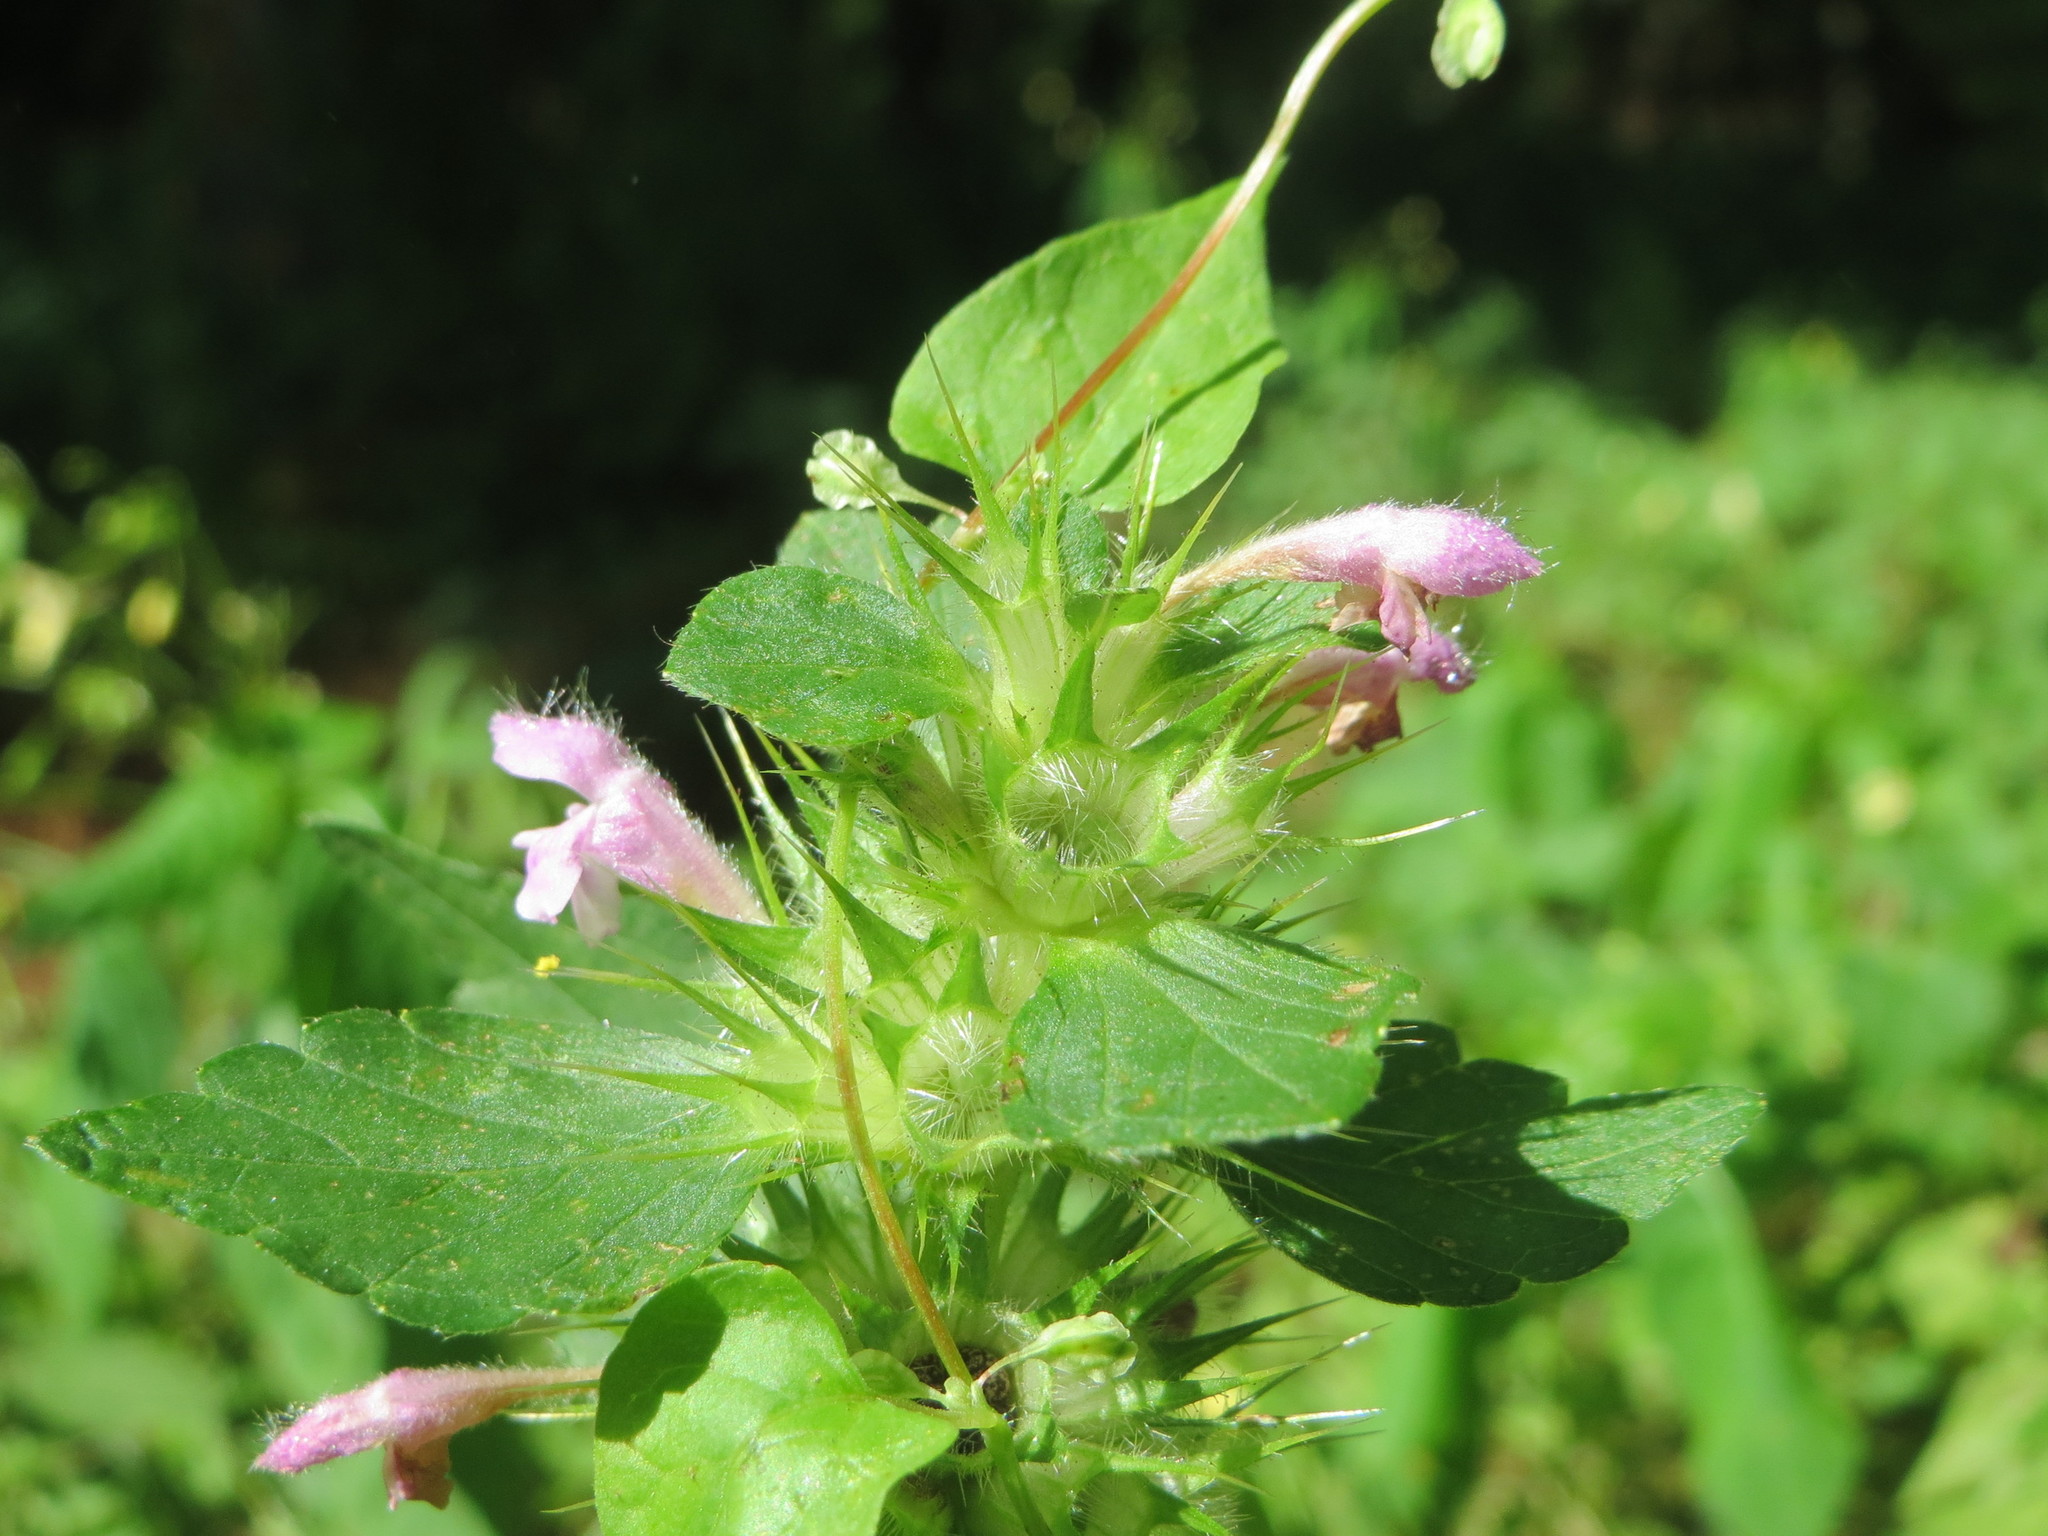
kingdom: Plantae
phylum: Tracheophyta
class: Magnoliopsida
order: Lamiales
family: Lamiaceae
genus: Galeopsis
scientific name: Galeopsis tetrahit
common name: Common hemp-nettle
